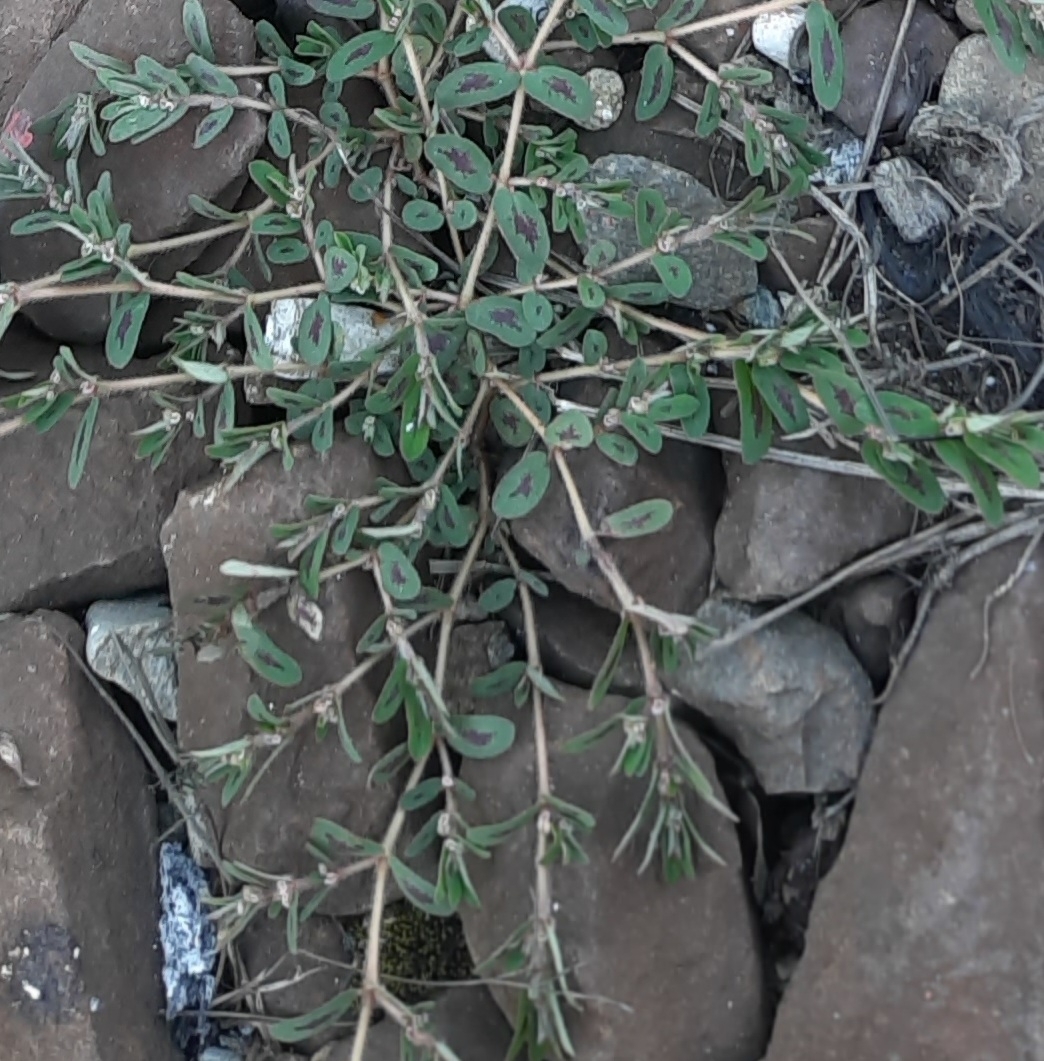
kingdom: Plantae
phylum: Tracheophyta
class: Magnoliopsida
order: Malpighiales
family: Euphorbiaceae
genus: Euphorbia
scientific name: Euphorbia maculata
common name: Spotted spurge
